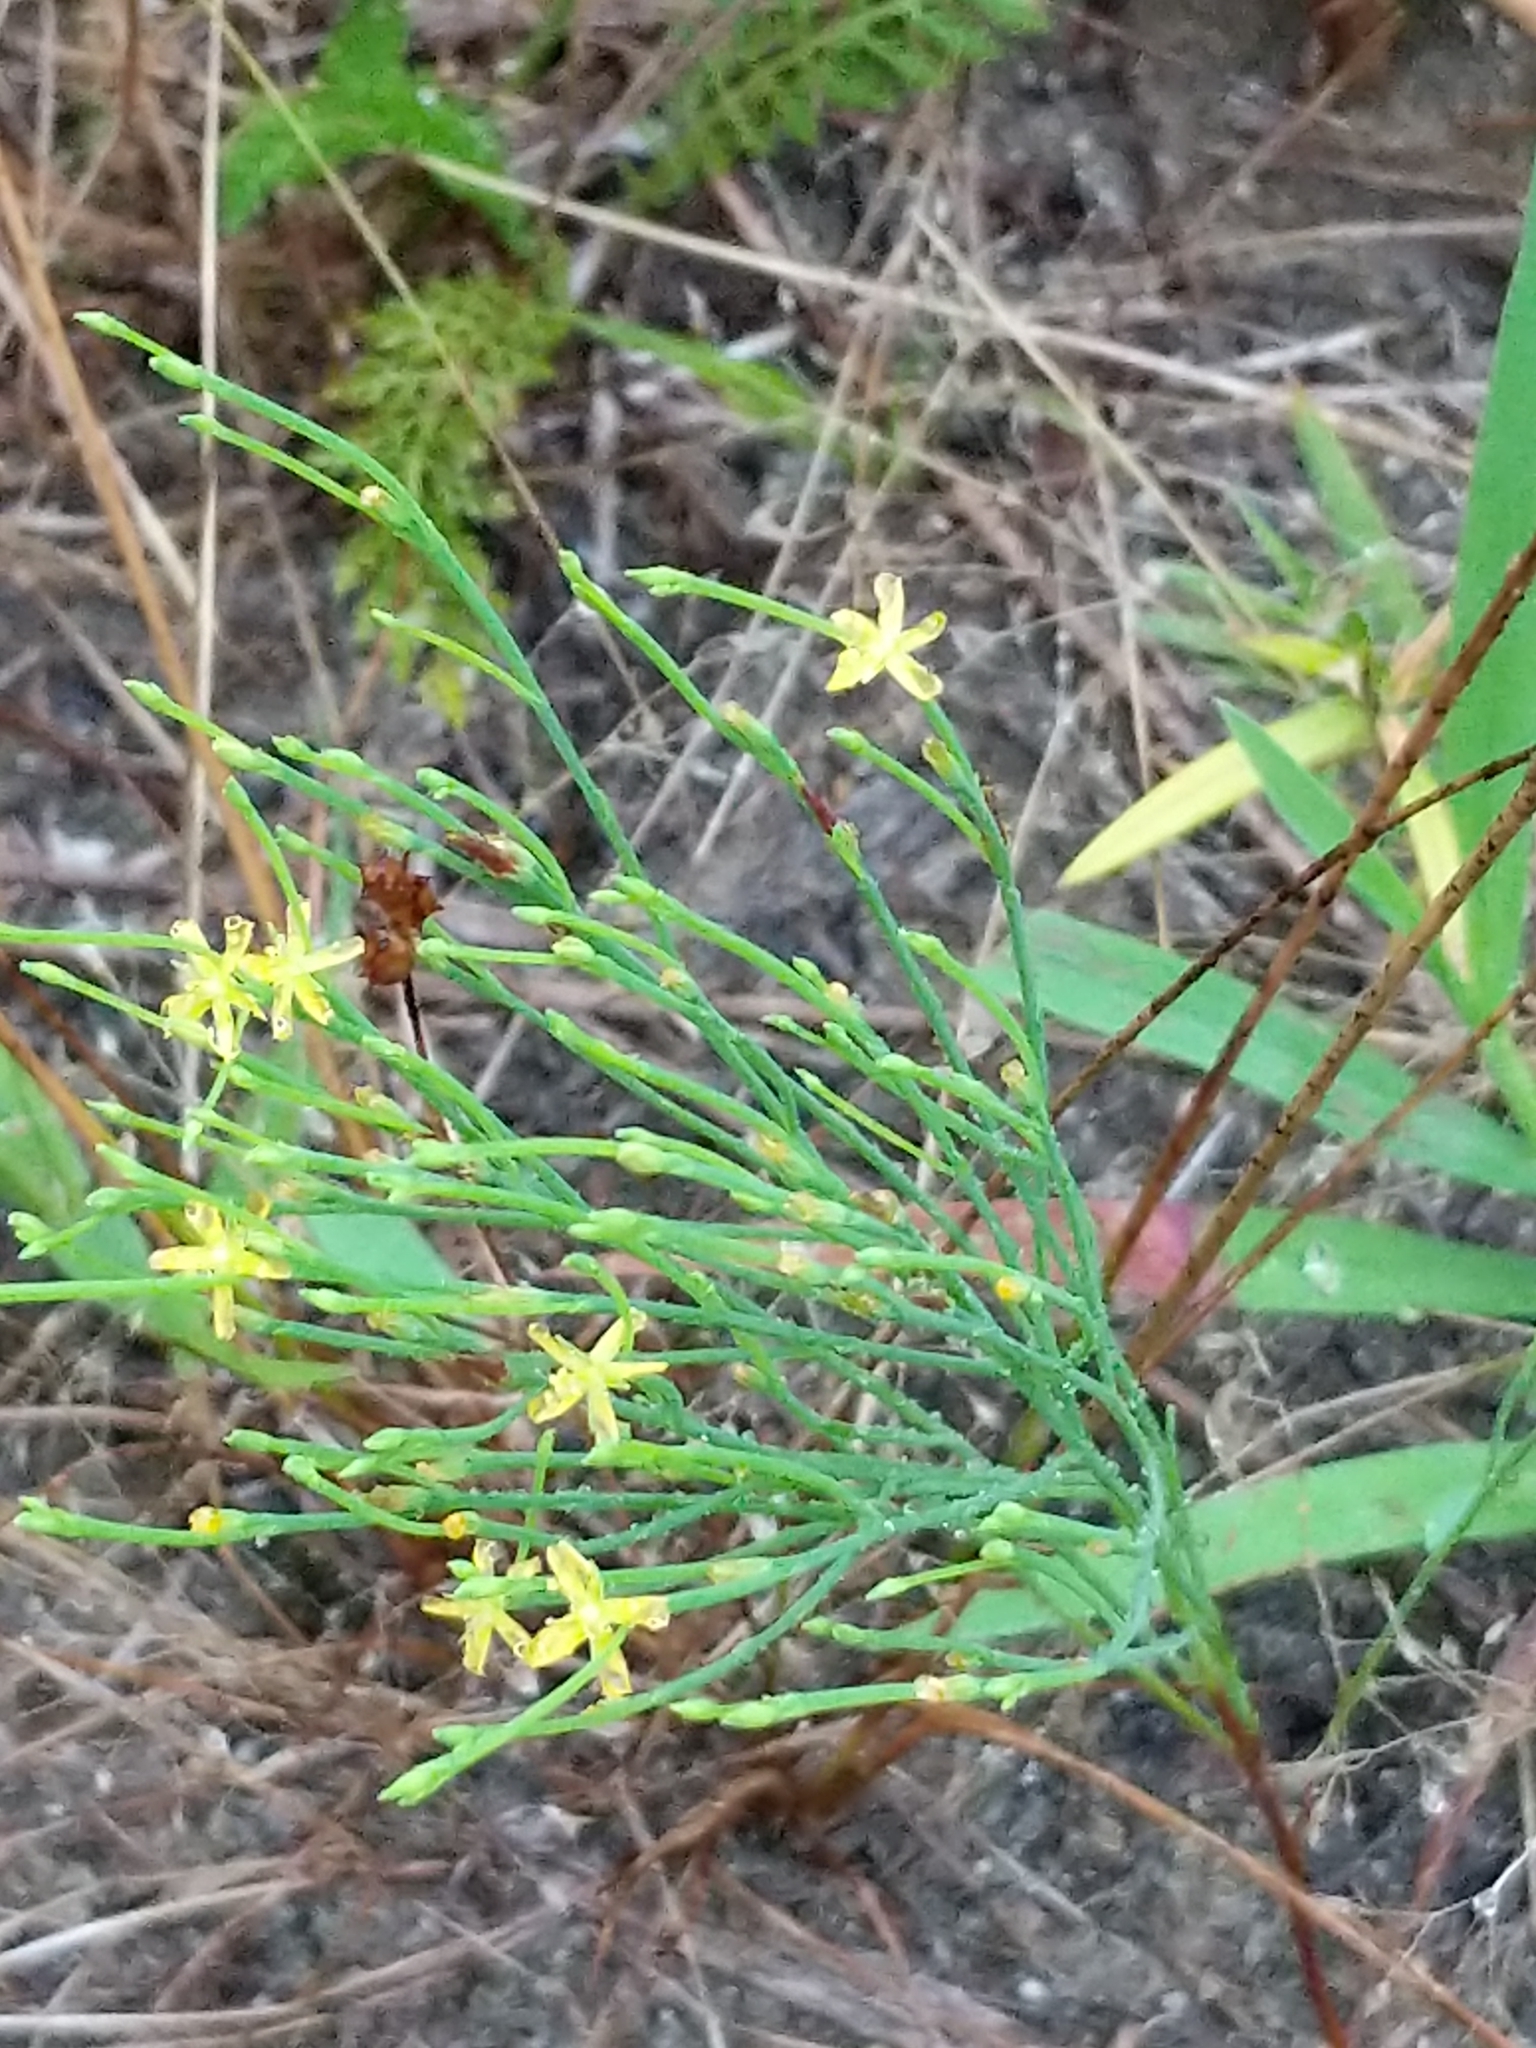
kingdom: Plantae
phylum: Tracheophyta
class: Magnoliopsida
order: Malpighiales
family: Hypericaceae
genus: Hypericum
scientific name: Hypericum gentianoides
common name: Gentian-leaved st. john's-wort
